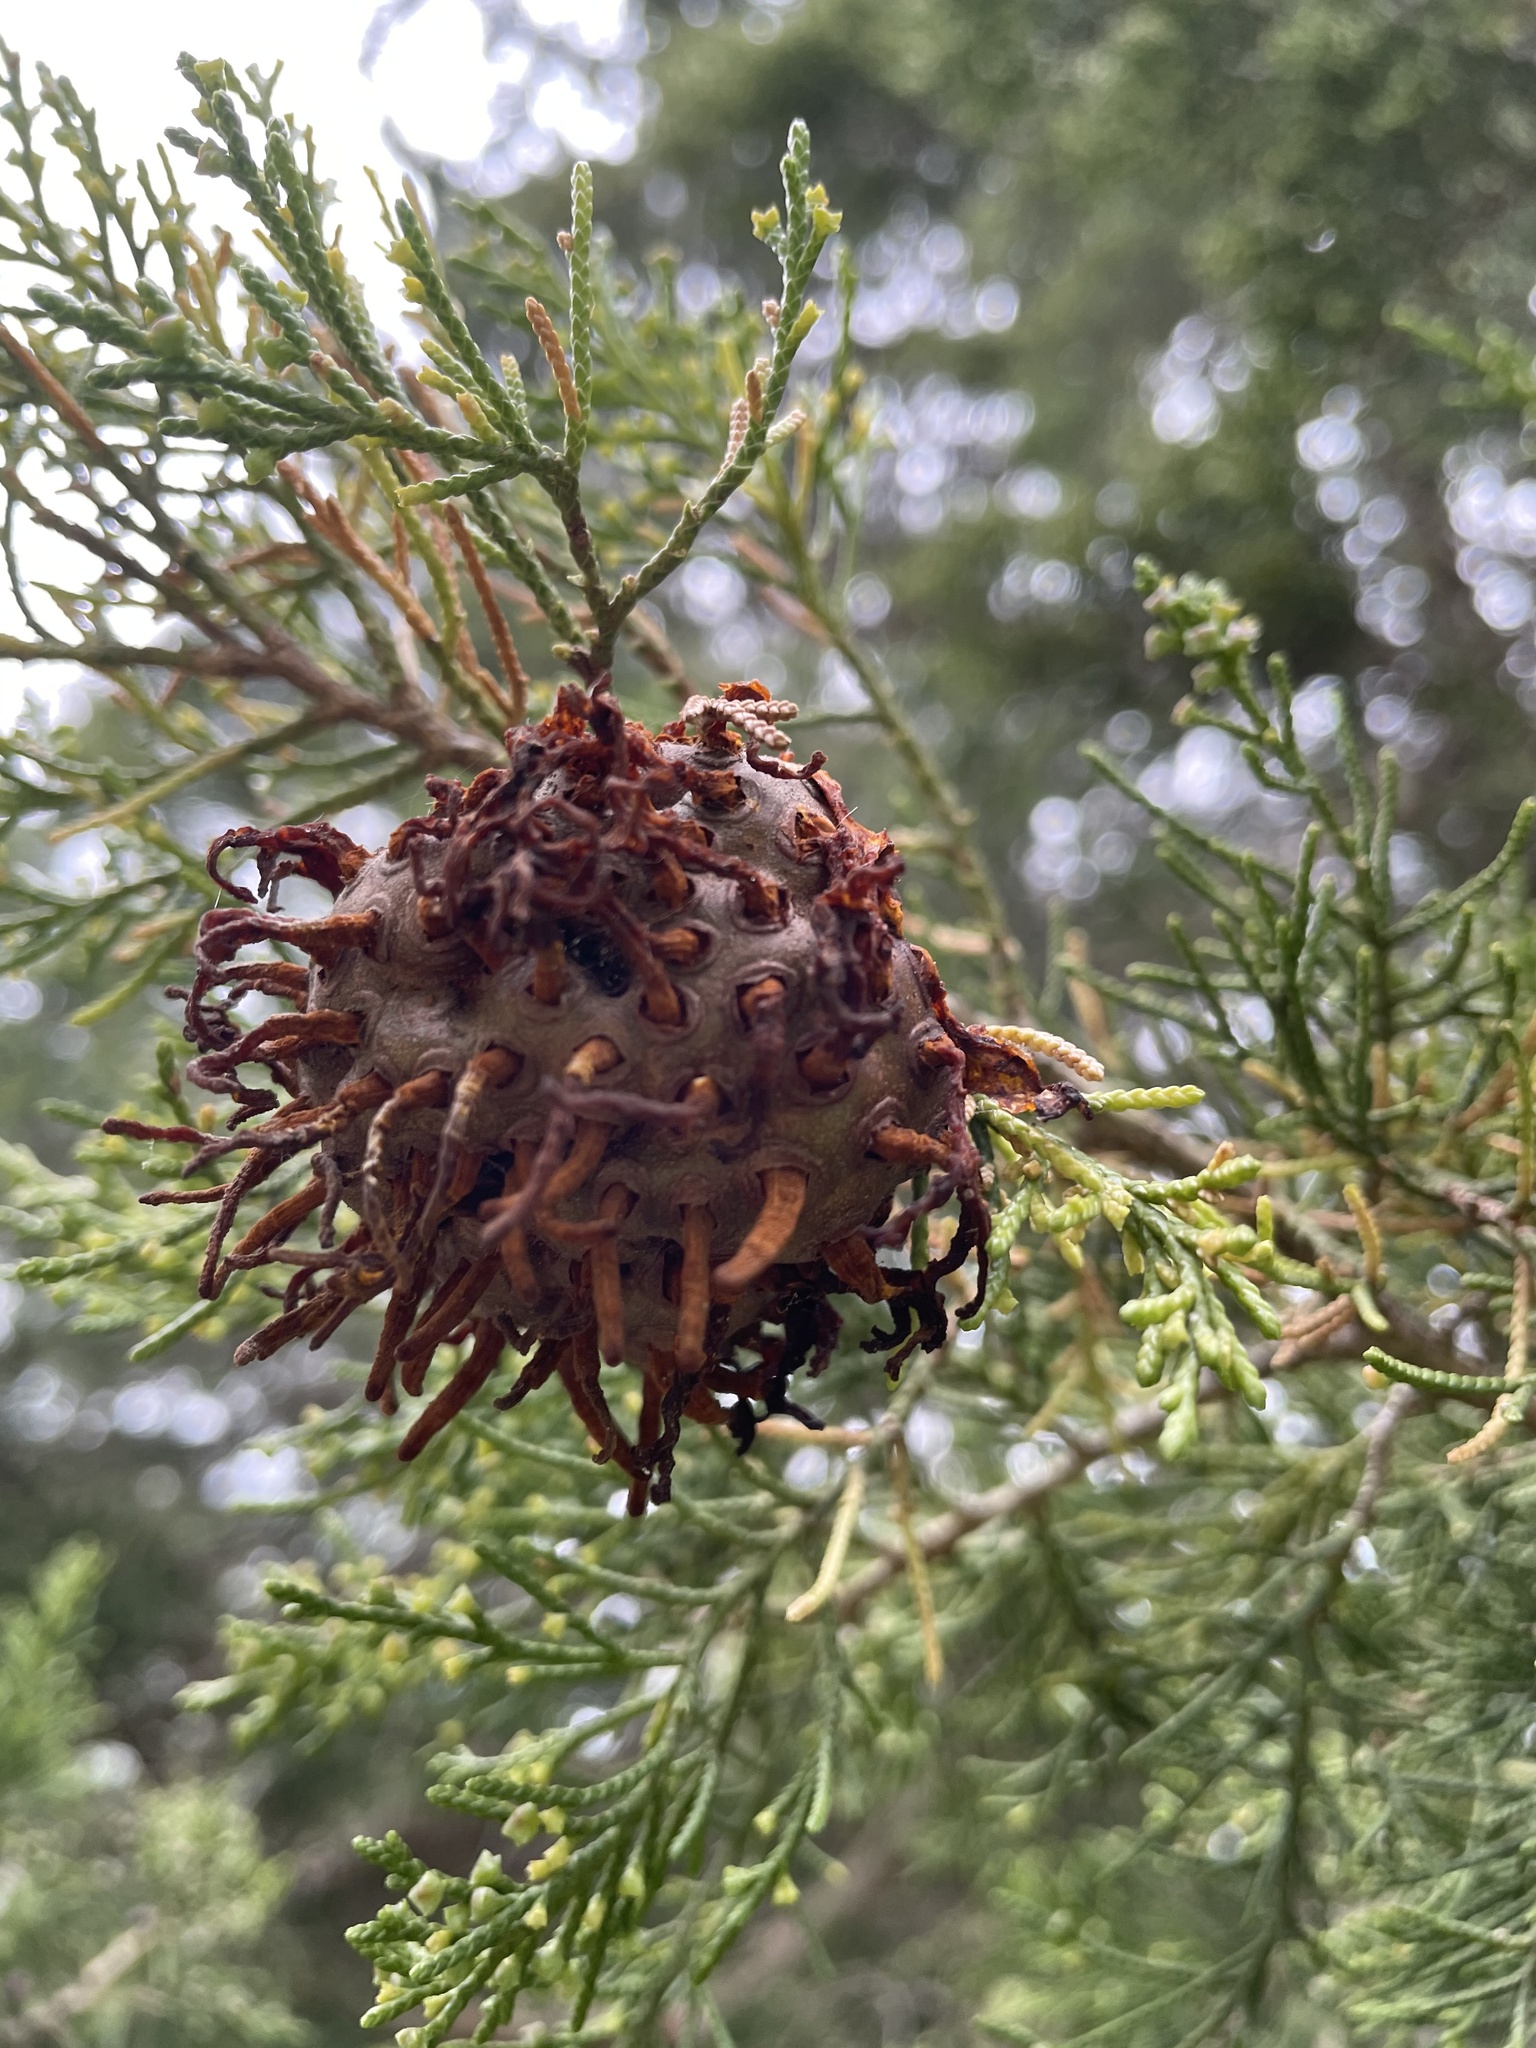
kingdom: Fungi
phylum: Basidiomycota
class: Pucciniomycetes
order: Pucciniales
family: Gymnosporangiaceae
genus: Gymnosporangium
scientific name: Gymnosporangium juniperi-virginianae
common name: Juniper-apple rust
